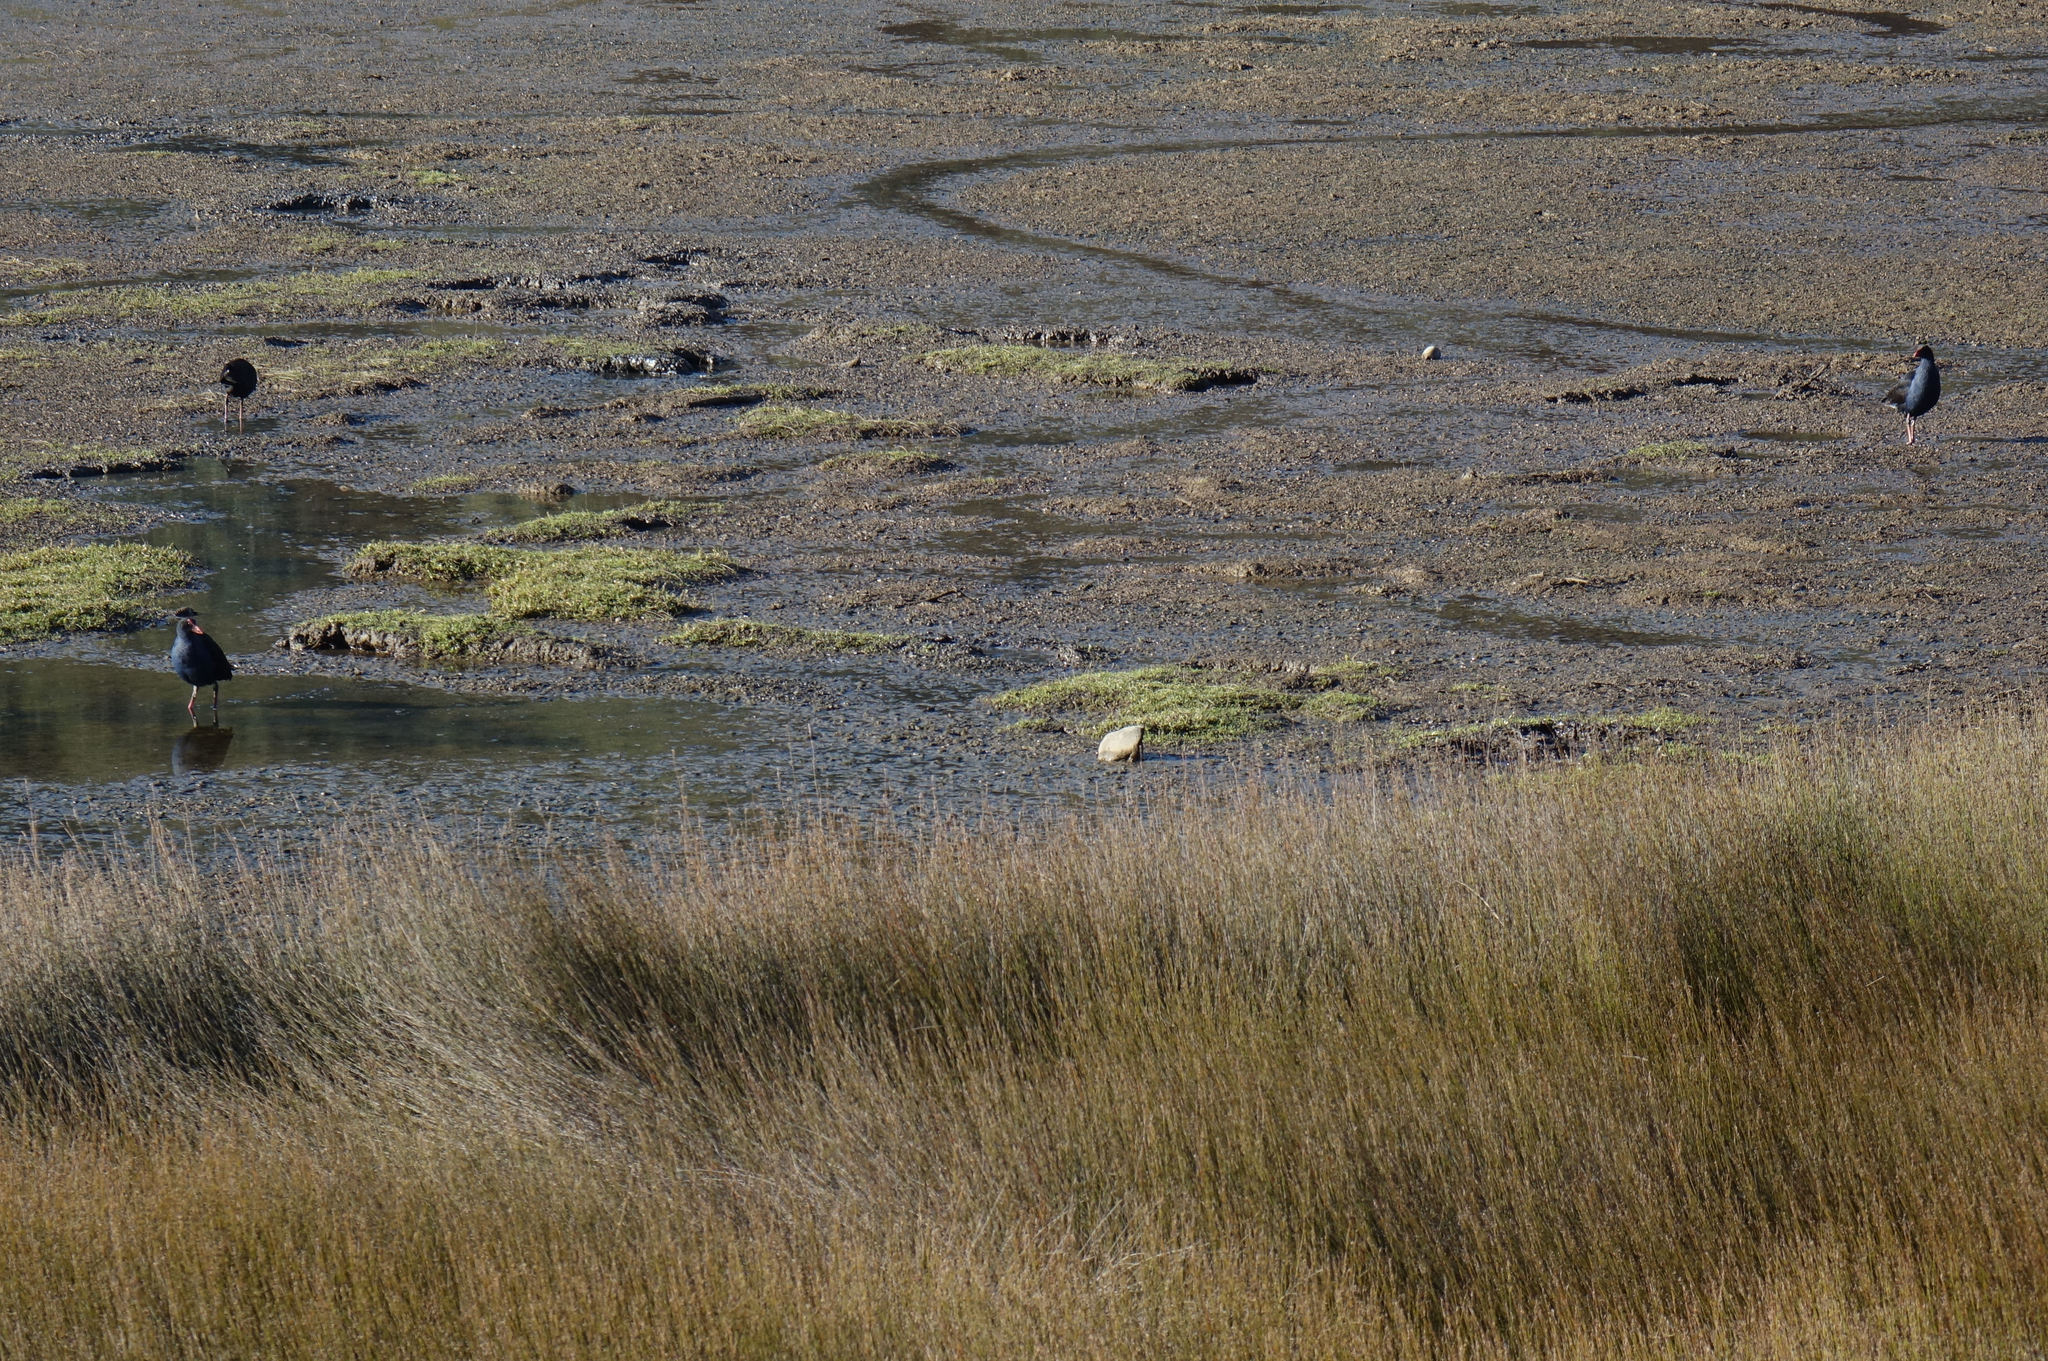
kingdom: Animalia
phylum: Chordata
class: Aves
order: Gruiformes
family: Rallidae
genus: Porphyrio
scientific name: Porphyrio melanotus
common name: Australasian swamphen
